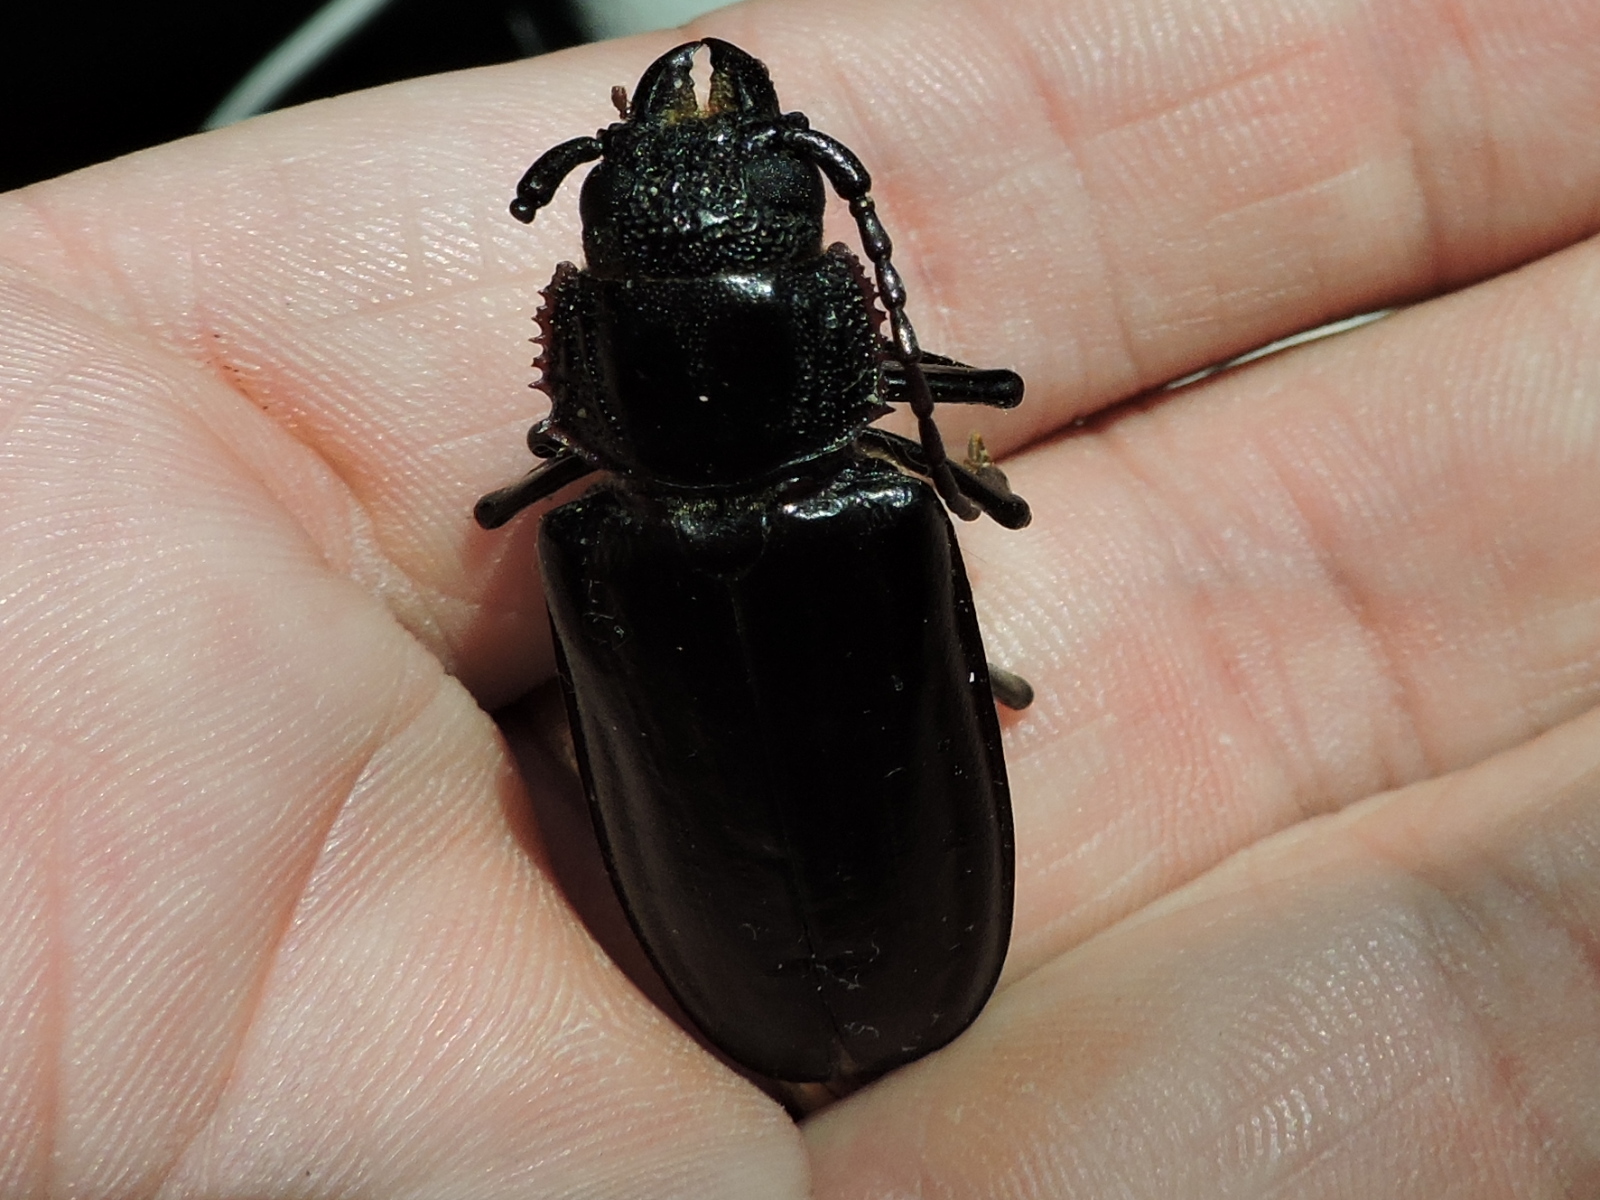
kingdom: Animalia
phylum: Arthropoda
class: Insecta
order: Coleoptera
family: Cerambycidae
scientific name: Cerambycidae
